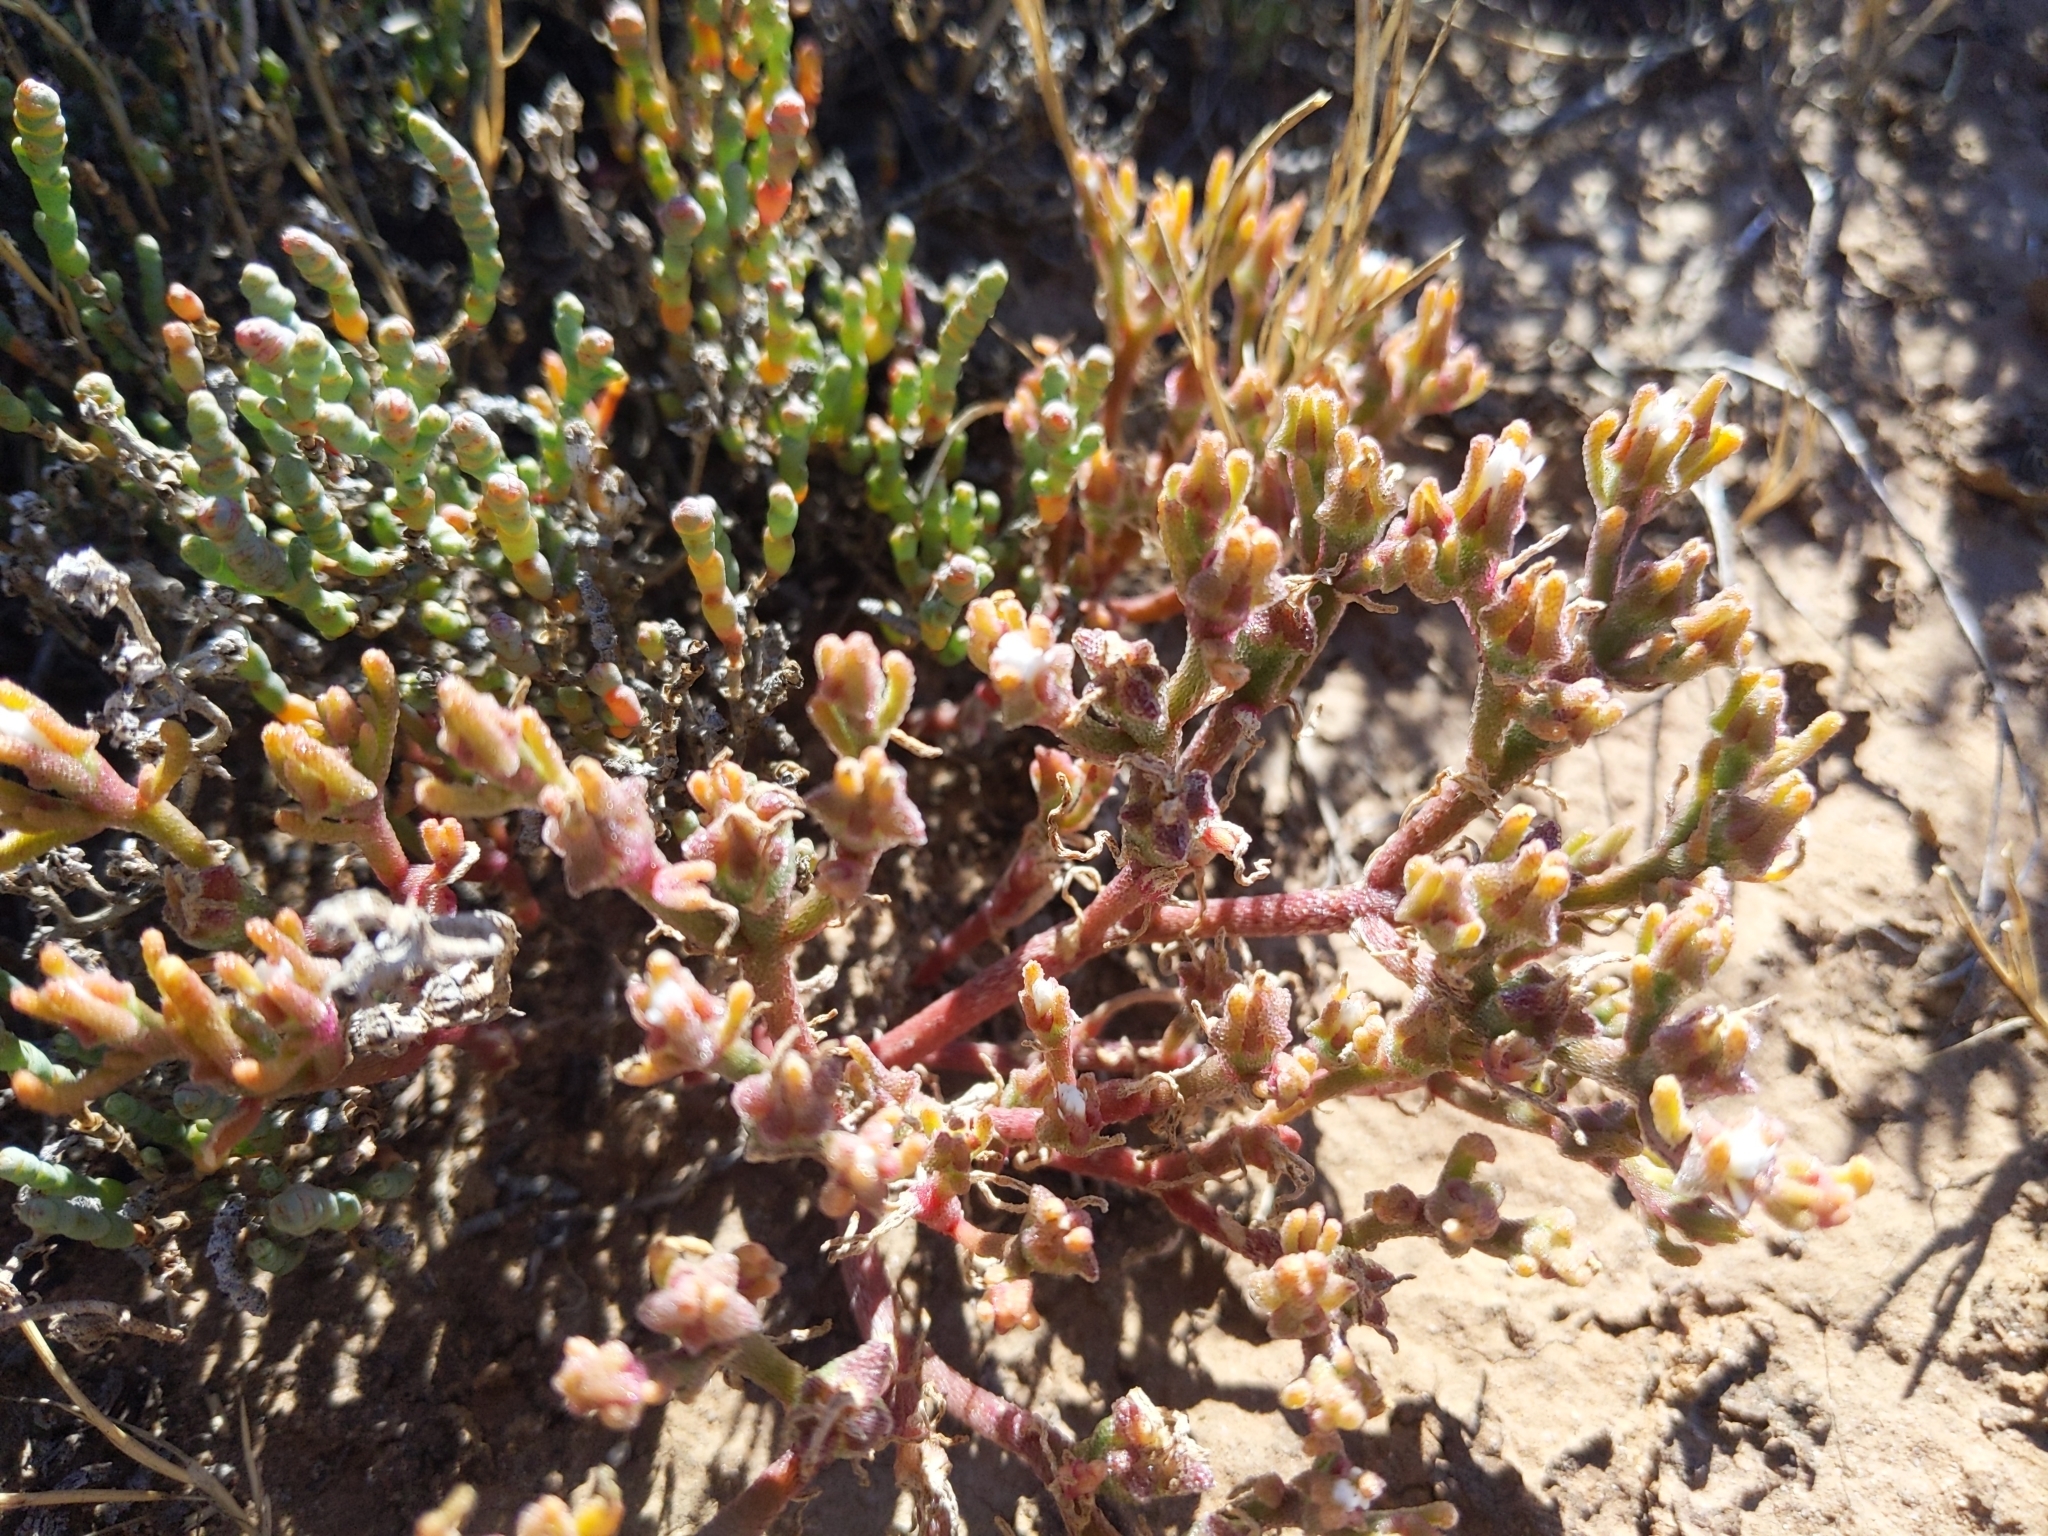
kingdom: Plantae
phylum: Tracheophyta
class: Magnoliopsida
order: Caryophyllales
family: Aizoaceae
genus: Mesembryanthemum
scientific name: Mesembryanthemum nodiflorum
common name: Slenderleaf iceplant
